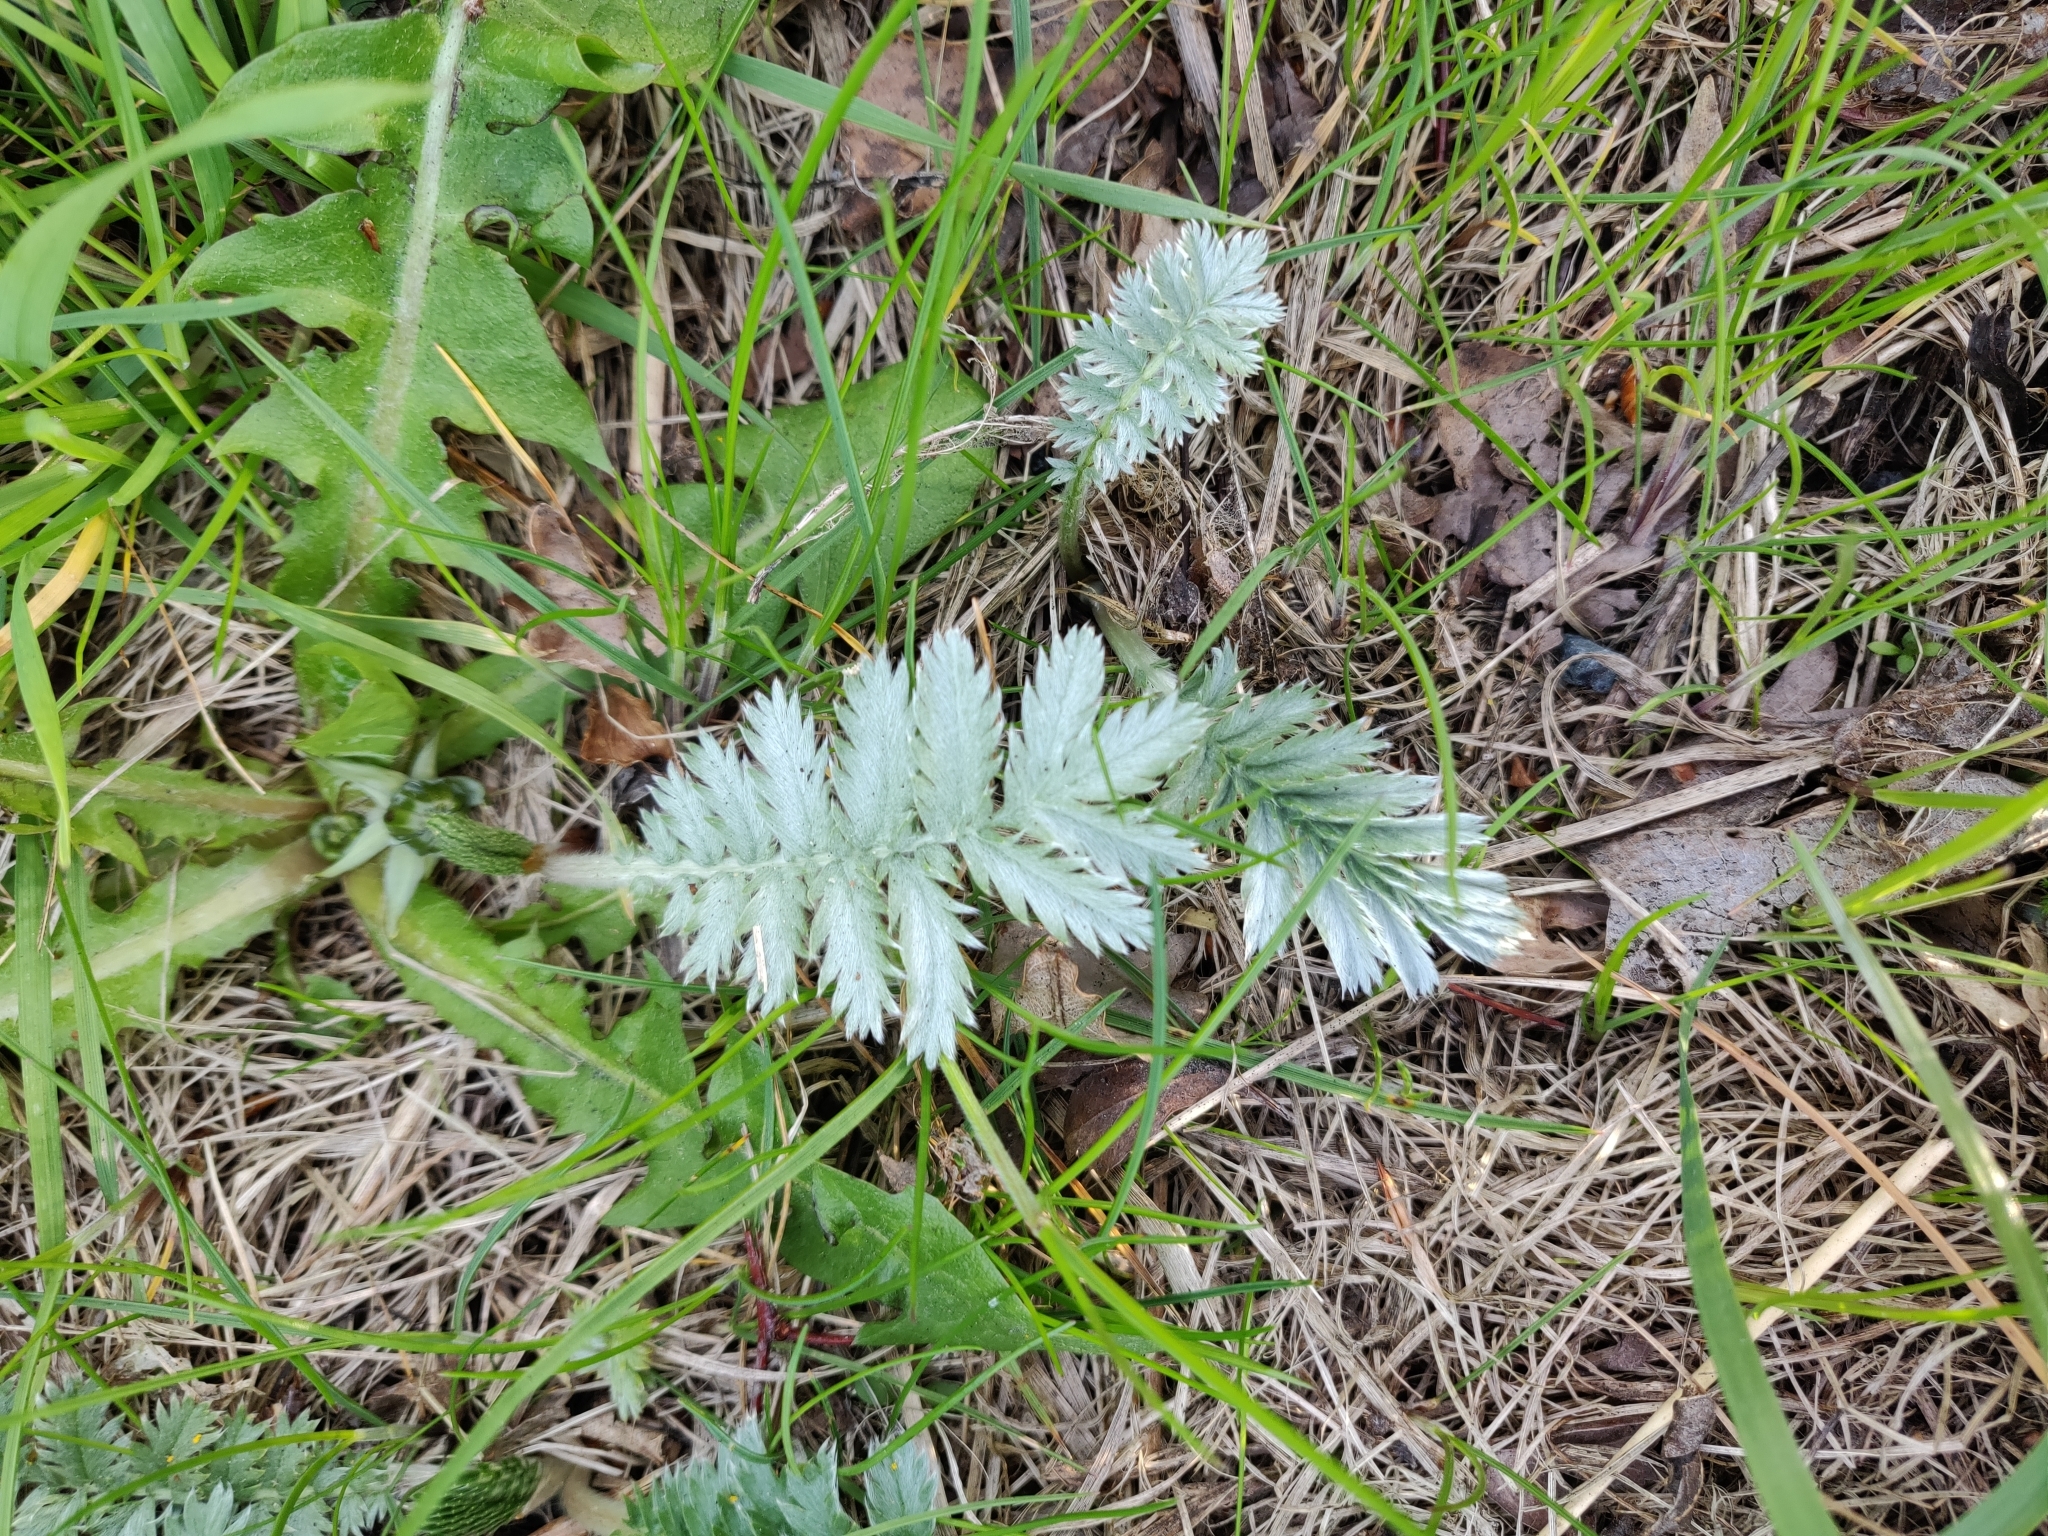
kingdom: Plantae
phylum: Tracheophyta
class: Magnoliopsida
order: Rosales
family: Rosaceae
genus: Argentina
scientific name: Argentina anserina
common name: Common silverweed
